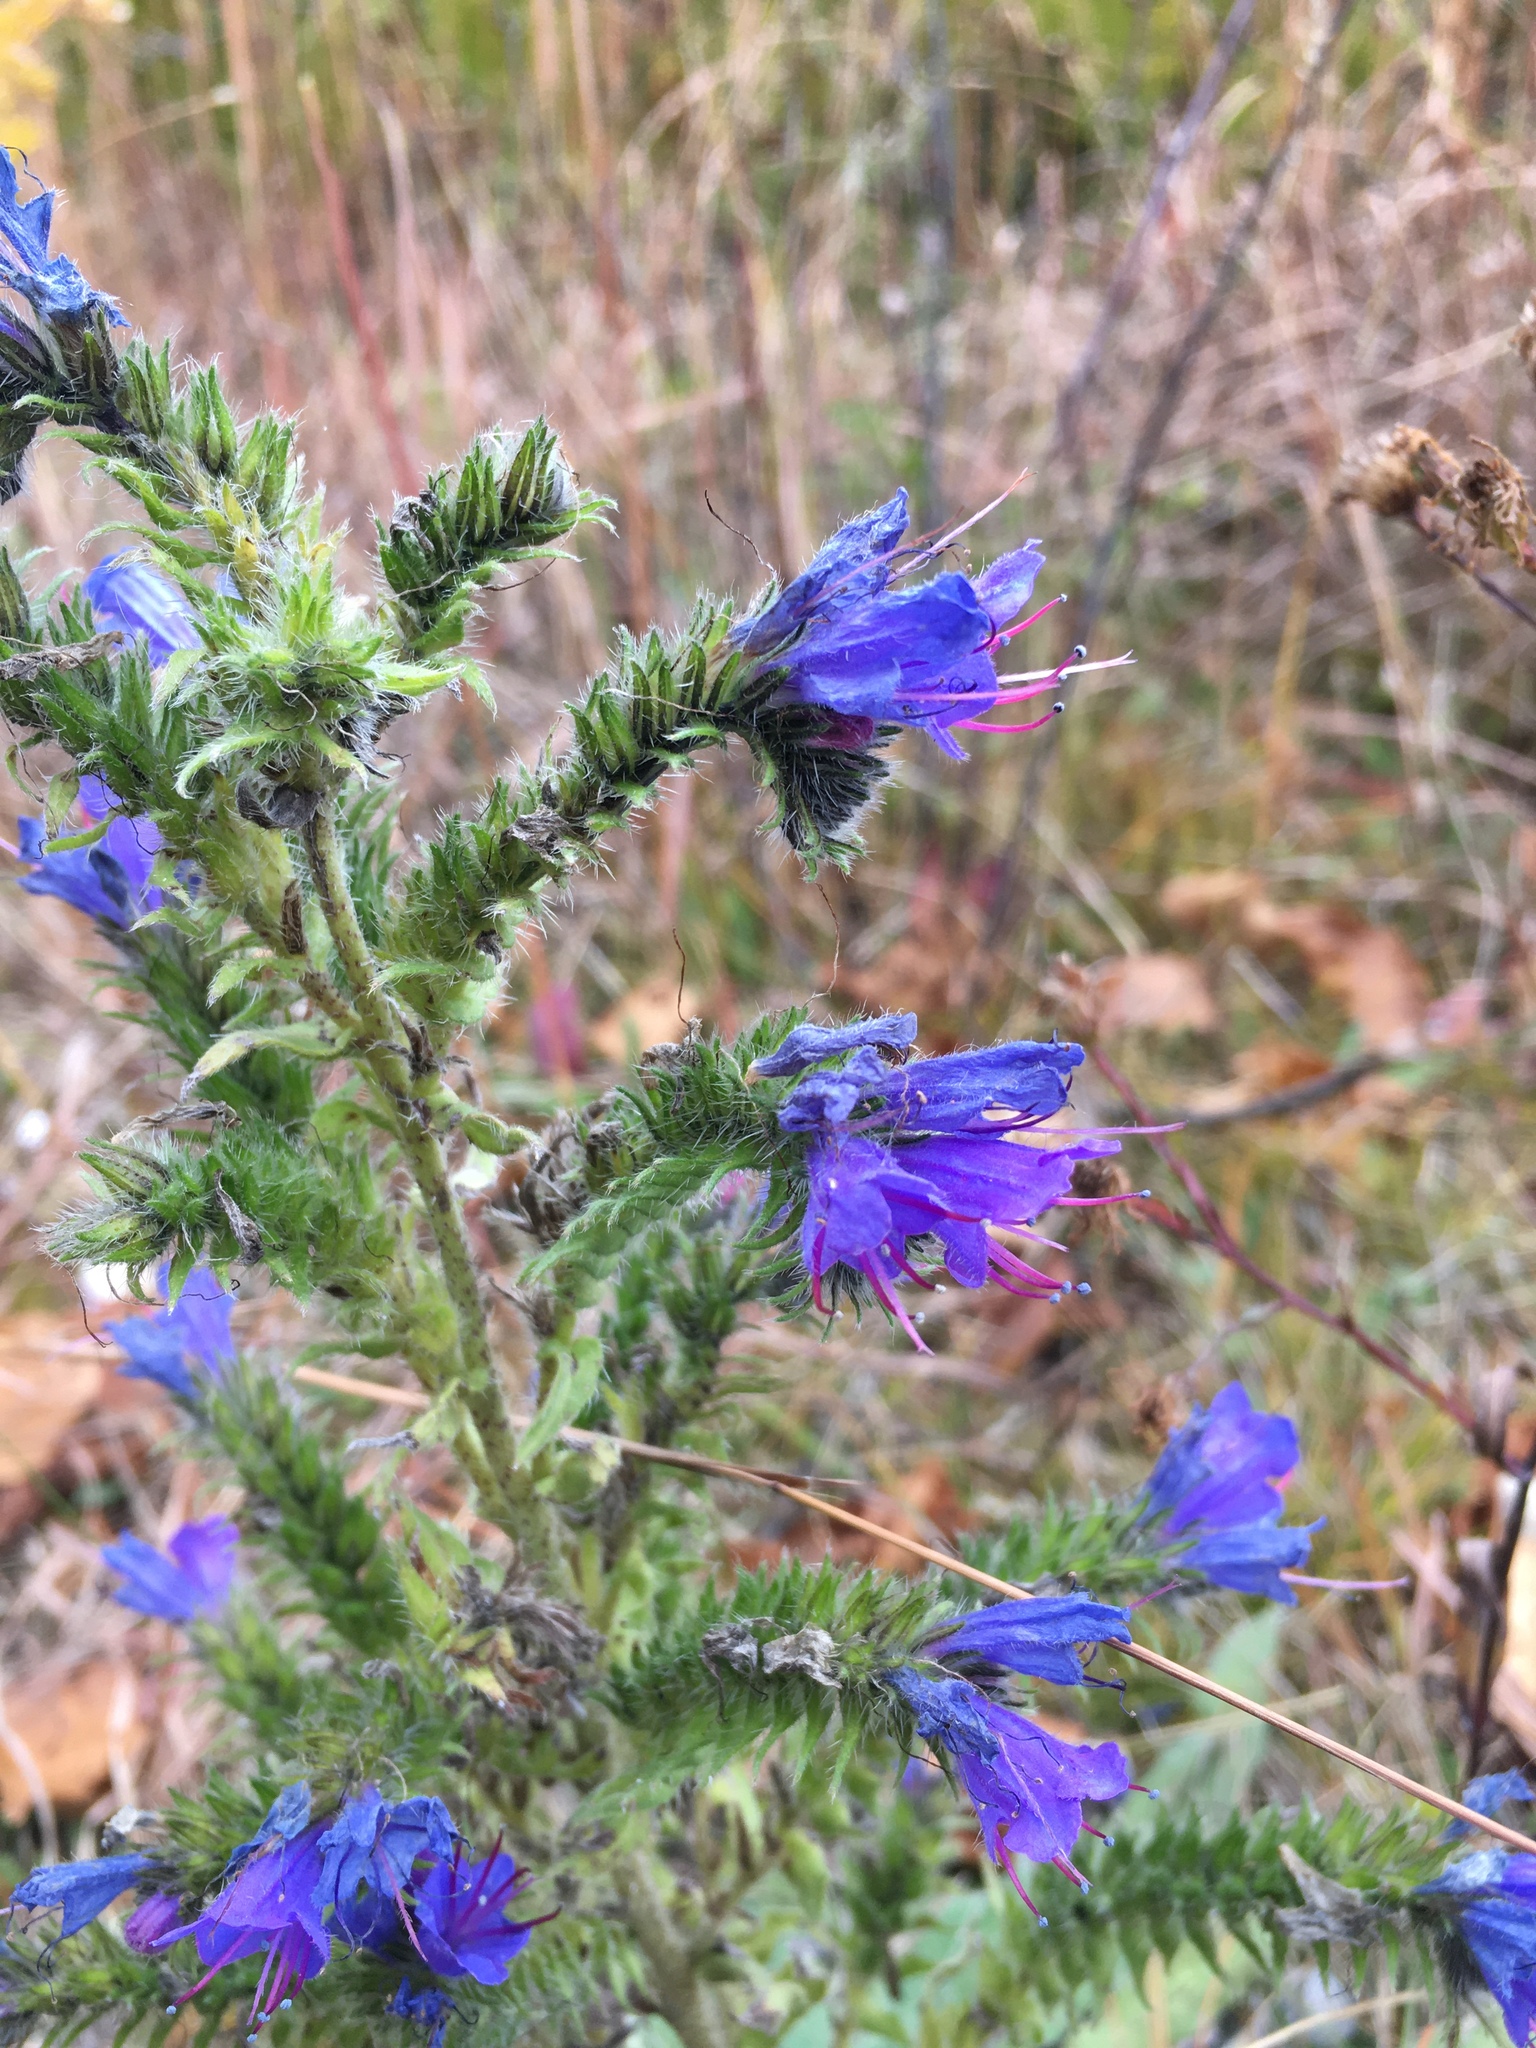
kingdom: Plantae
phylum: Tracheophyta
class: Magnoliopsida
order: Boraginales
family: Boraginaceae
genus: Echium
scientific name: Echium vulgare
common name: Common viper's bugloss
